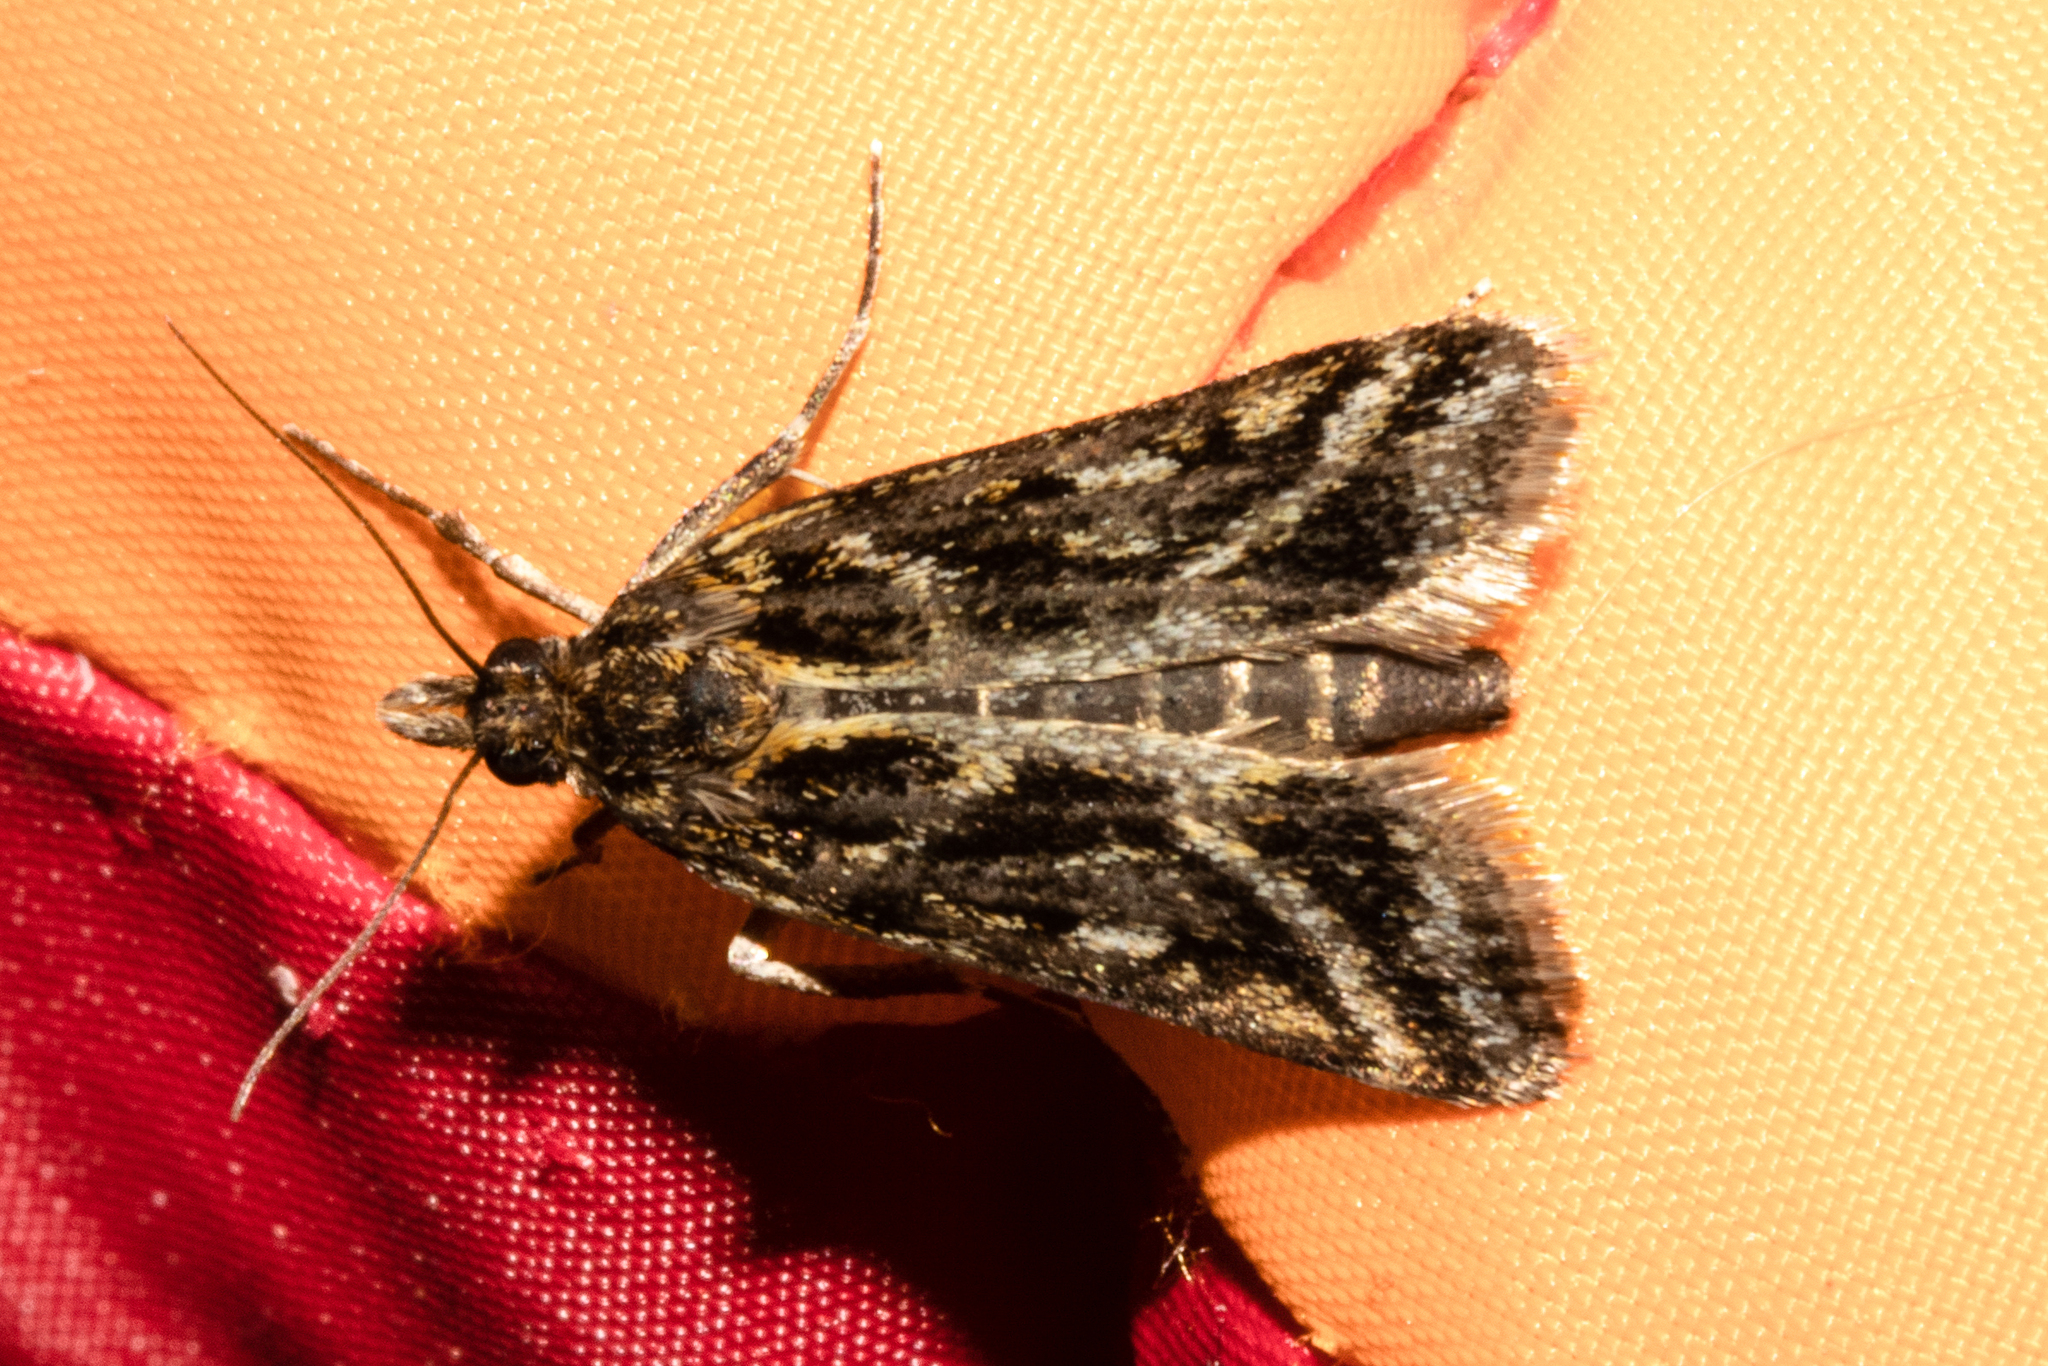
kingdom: Animalia
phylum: Arthropoda
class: Insecta
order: Lepidoptera
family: Crambidae
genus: Eudonia
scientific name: Eudonia xysmatias
